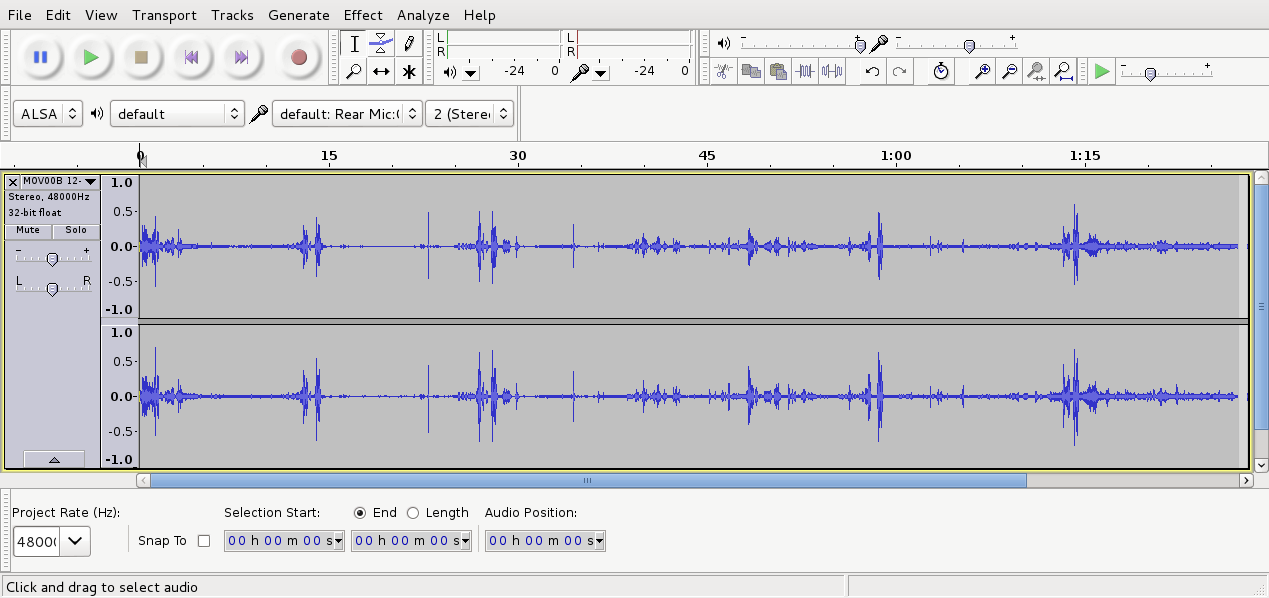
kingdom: Animalia
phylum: Chordata
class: Aves
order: Passeriformes
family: Meliphagidae
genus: Prosthemadera
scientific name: Prosthemadera novaeseelandiae
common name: Tui
